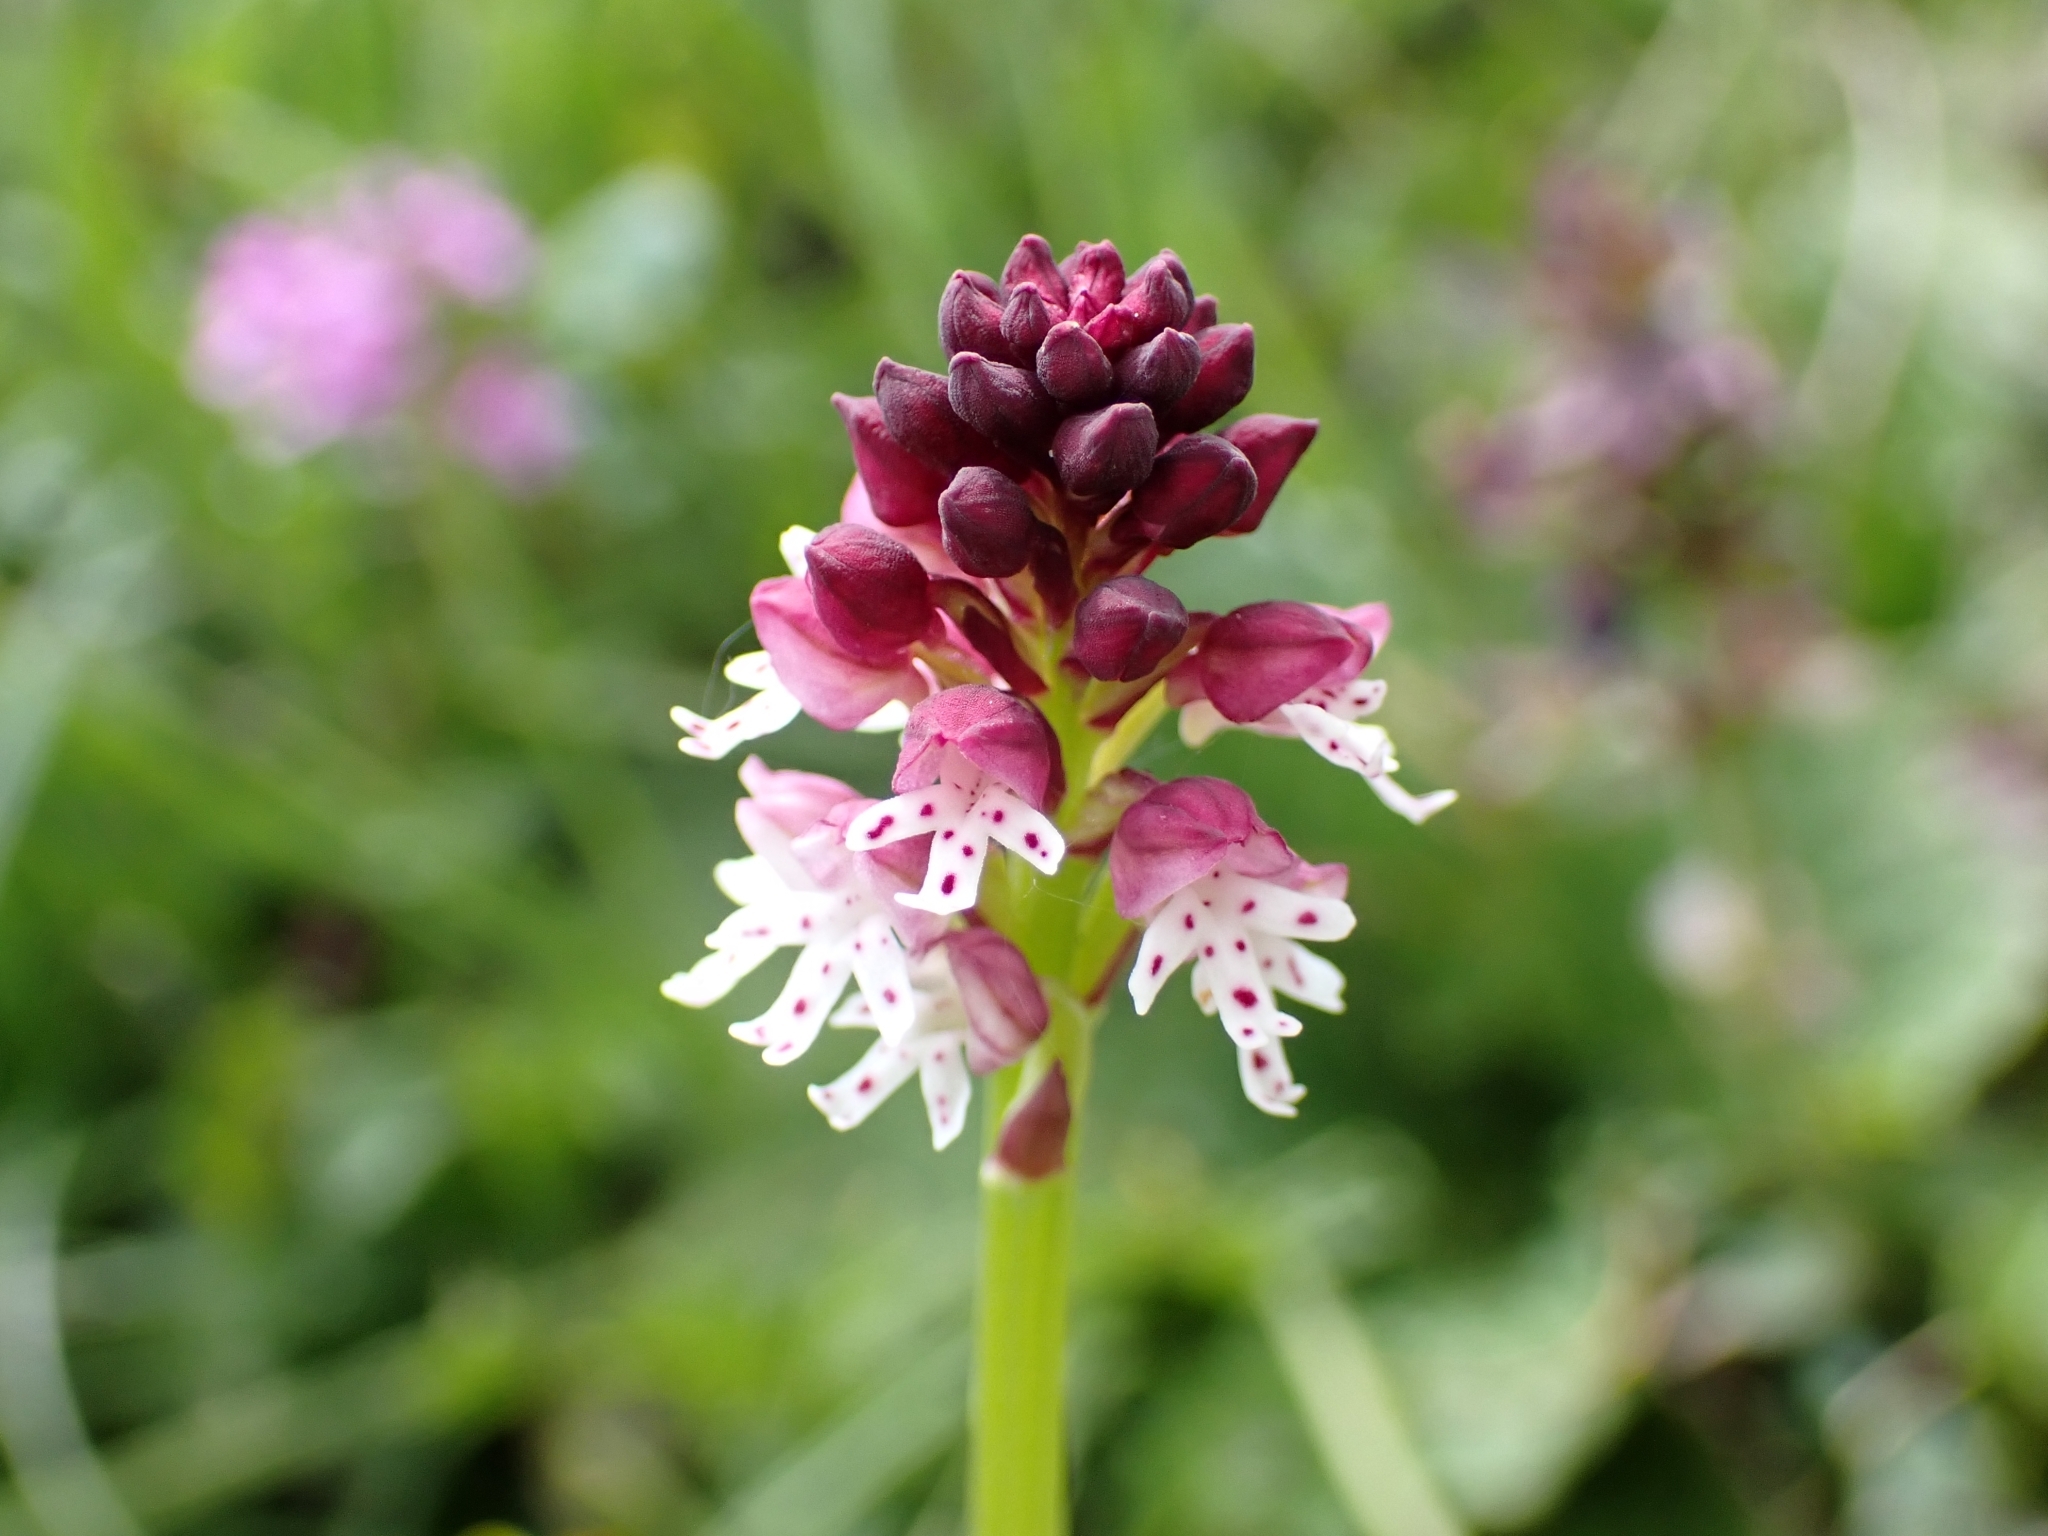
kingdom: Plantae
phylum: Tracheophyta
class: Liliopsida
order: Asparagales
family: Orchidaceae
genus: Neotinea
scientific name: Neotinea ustulata
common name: Burnt orchid
